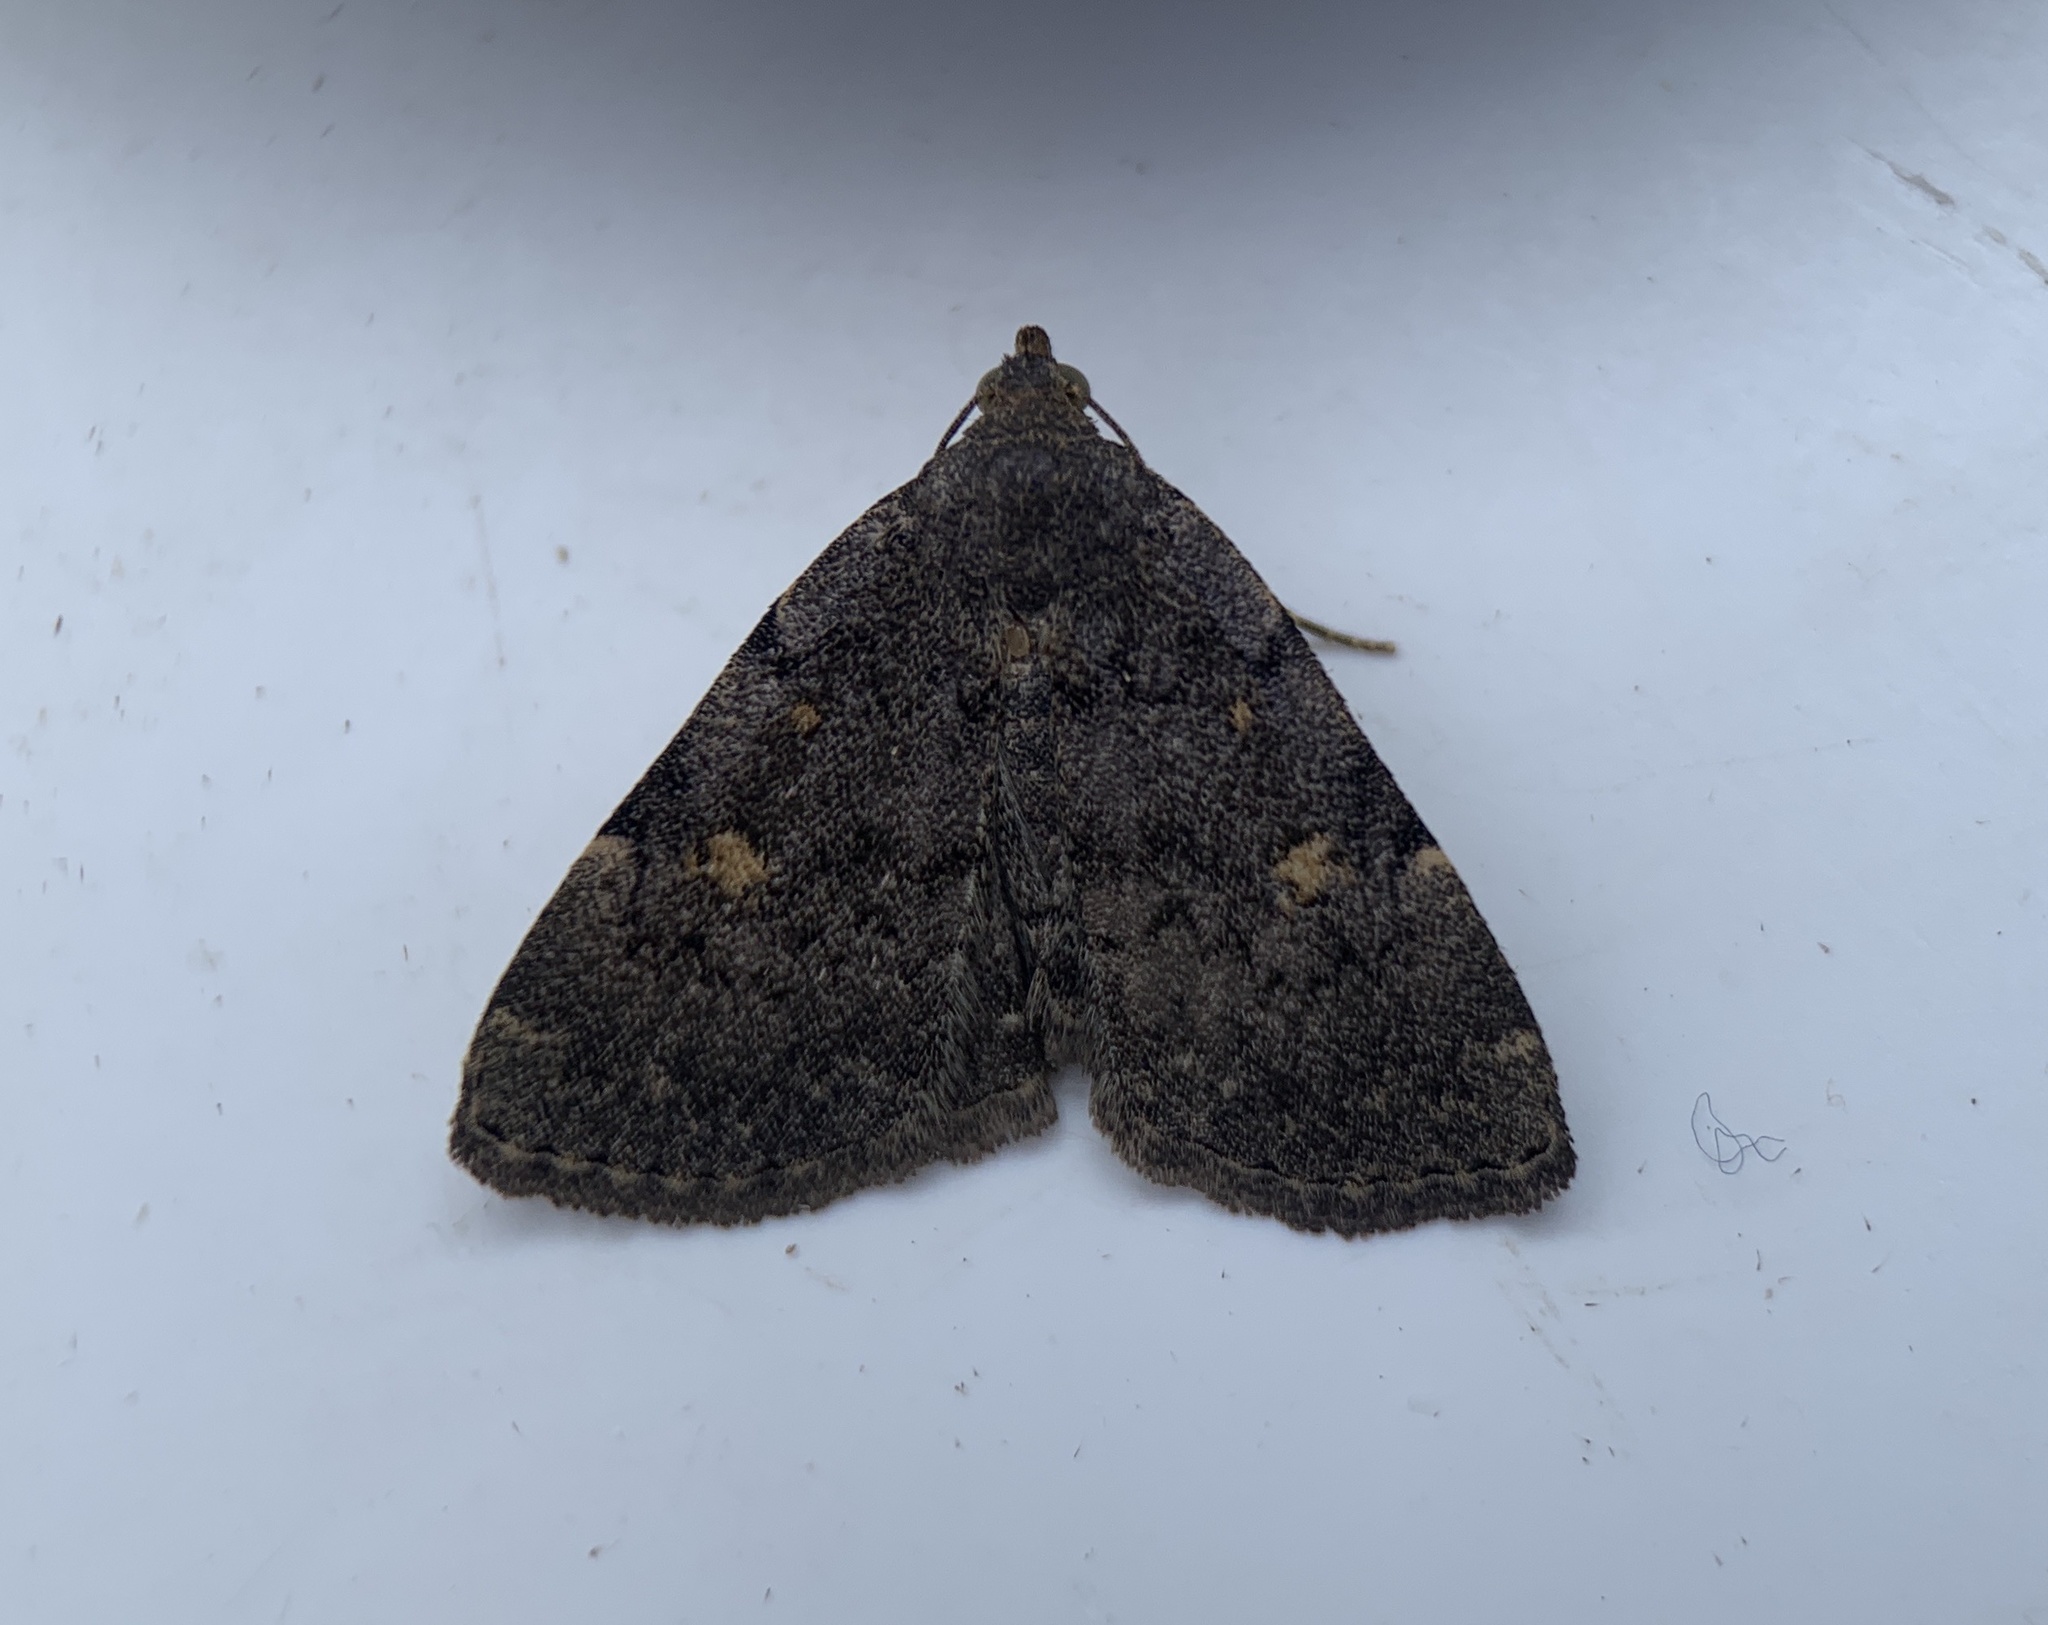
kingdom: Animalia
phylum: Arthropoda
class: Insecta
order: Lepidoptera
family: Erebidae
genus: Idia
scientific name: Idia aemula
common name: Common idia moth
